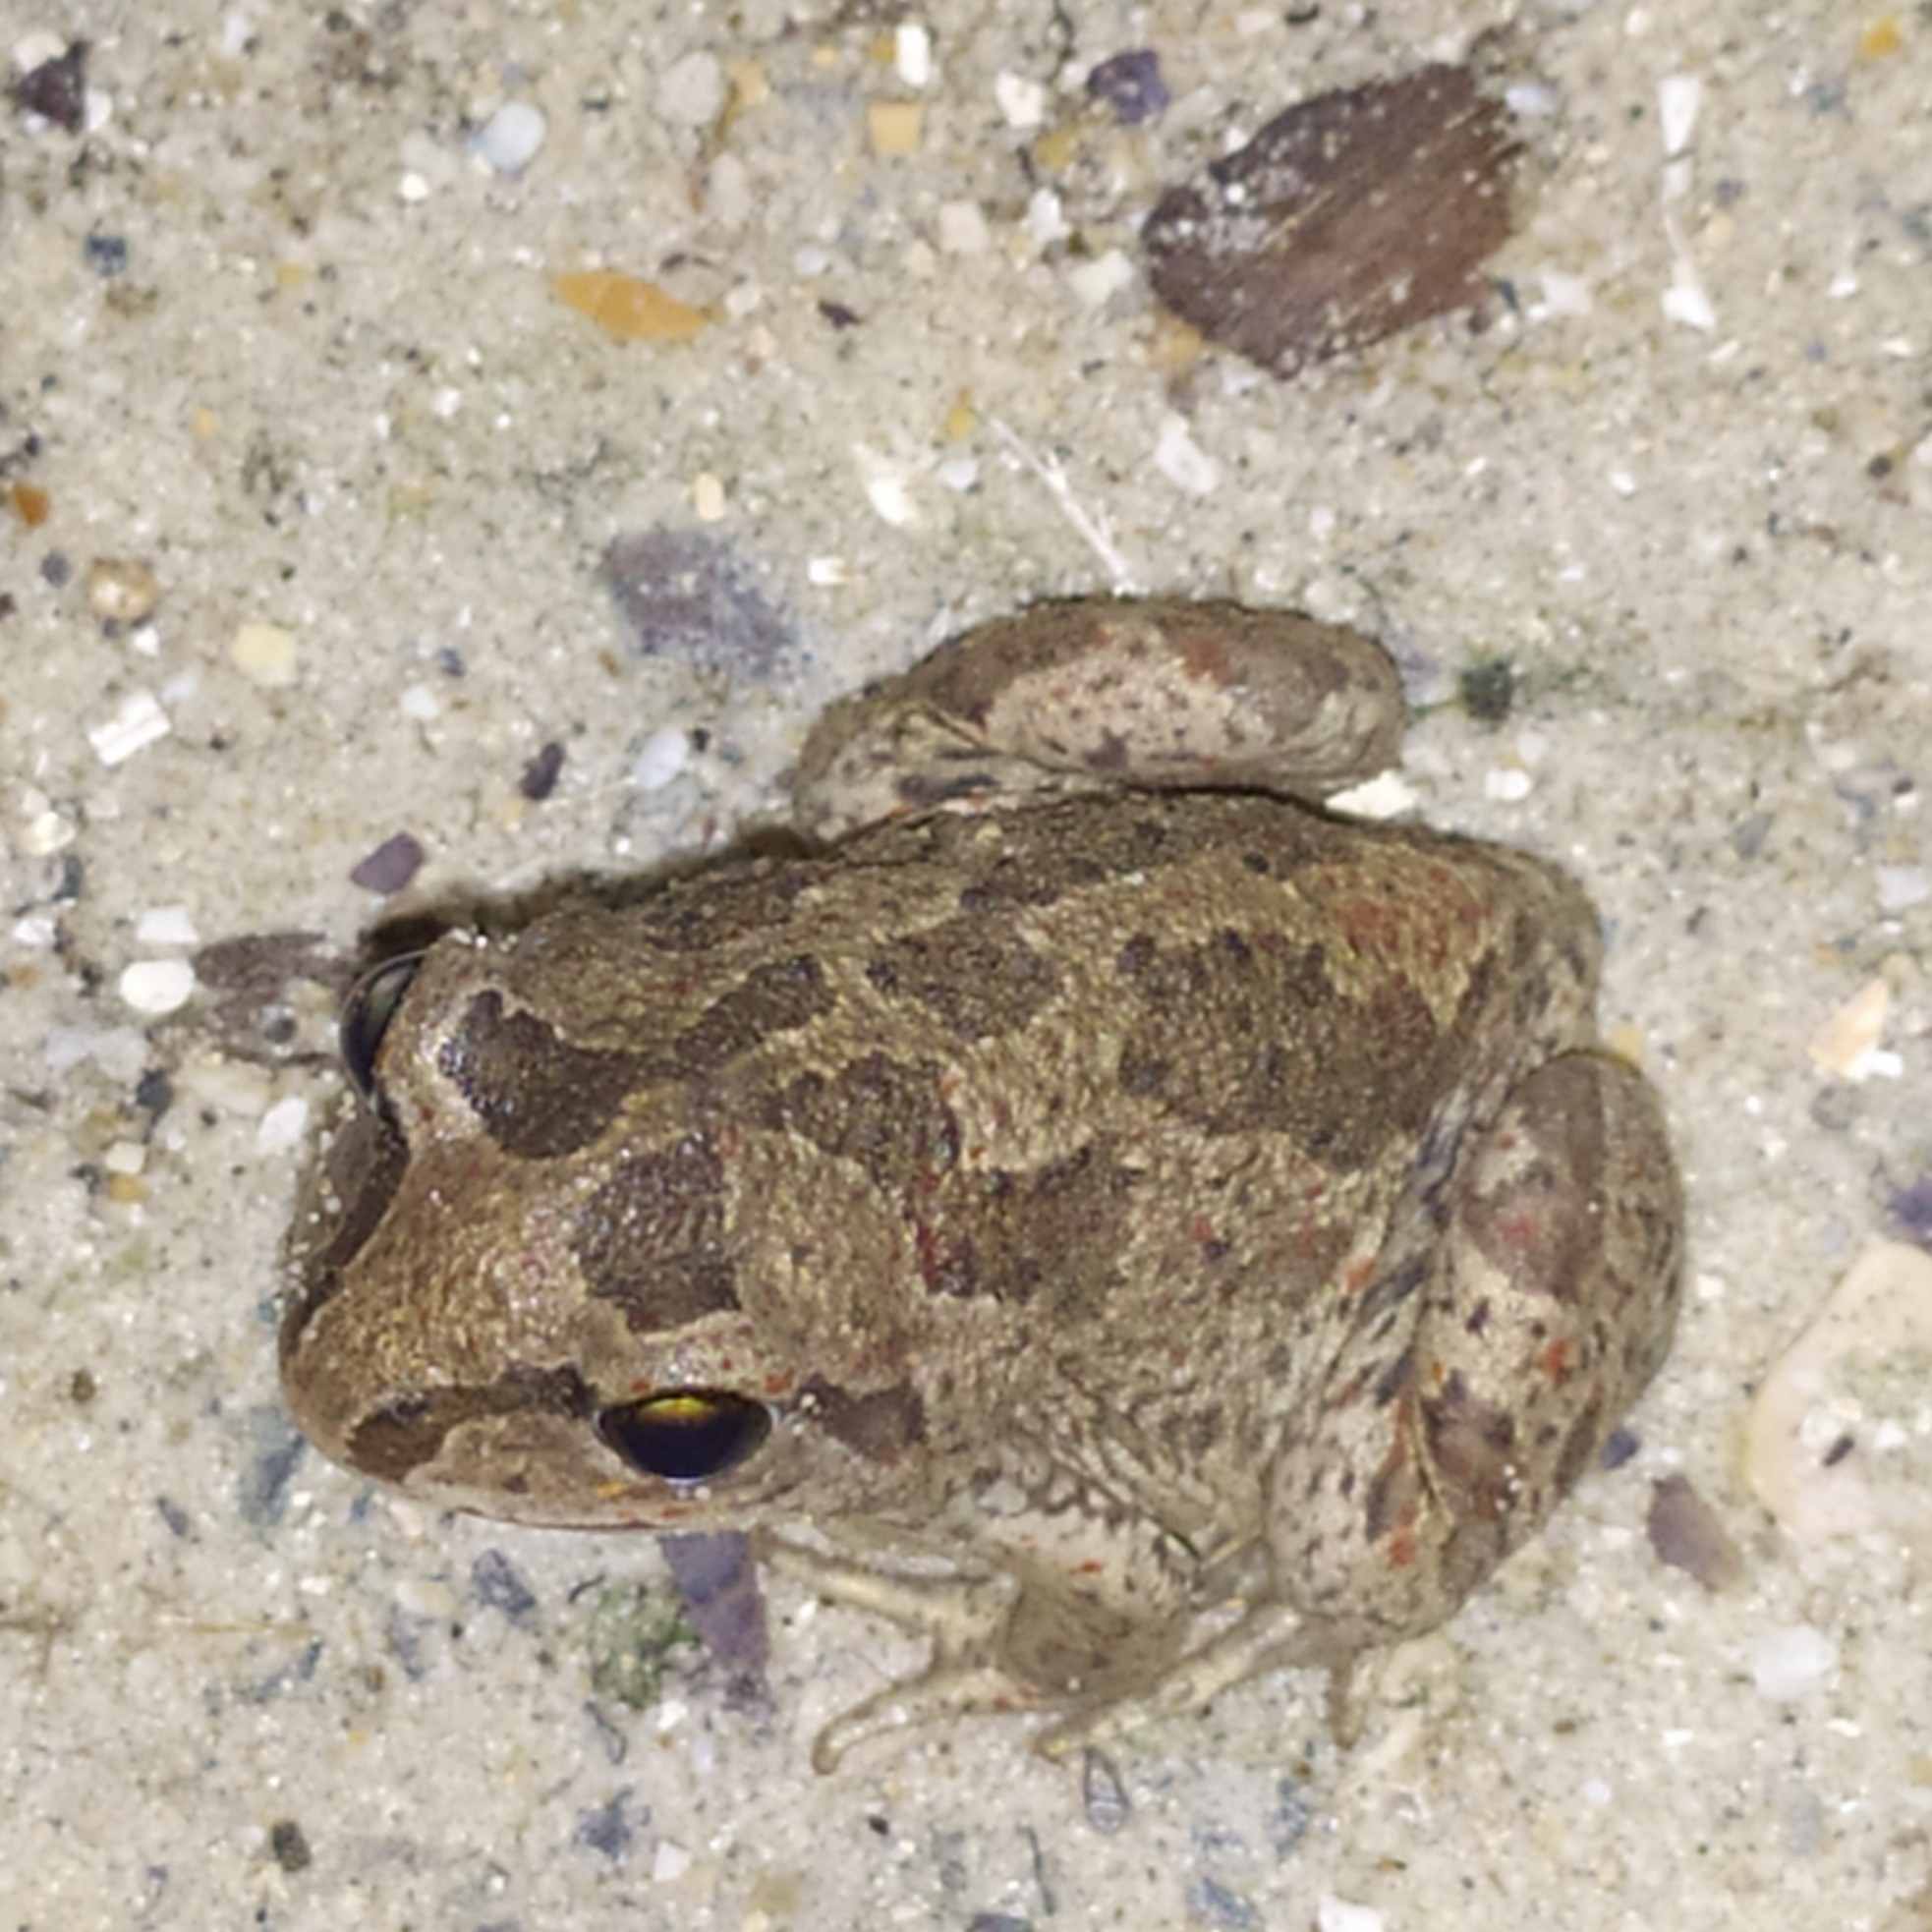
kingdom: Animalia
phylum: Chordata
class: Amphibia
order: Anura
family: Pelobatidae
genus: Pelobates
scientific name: Pelobates fuscus
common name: Common eurasian spadefoot toad
